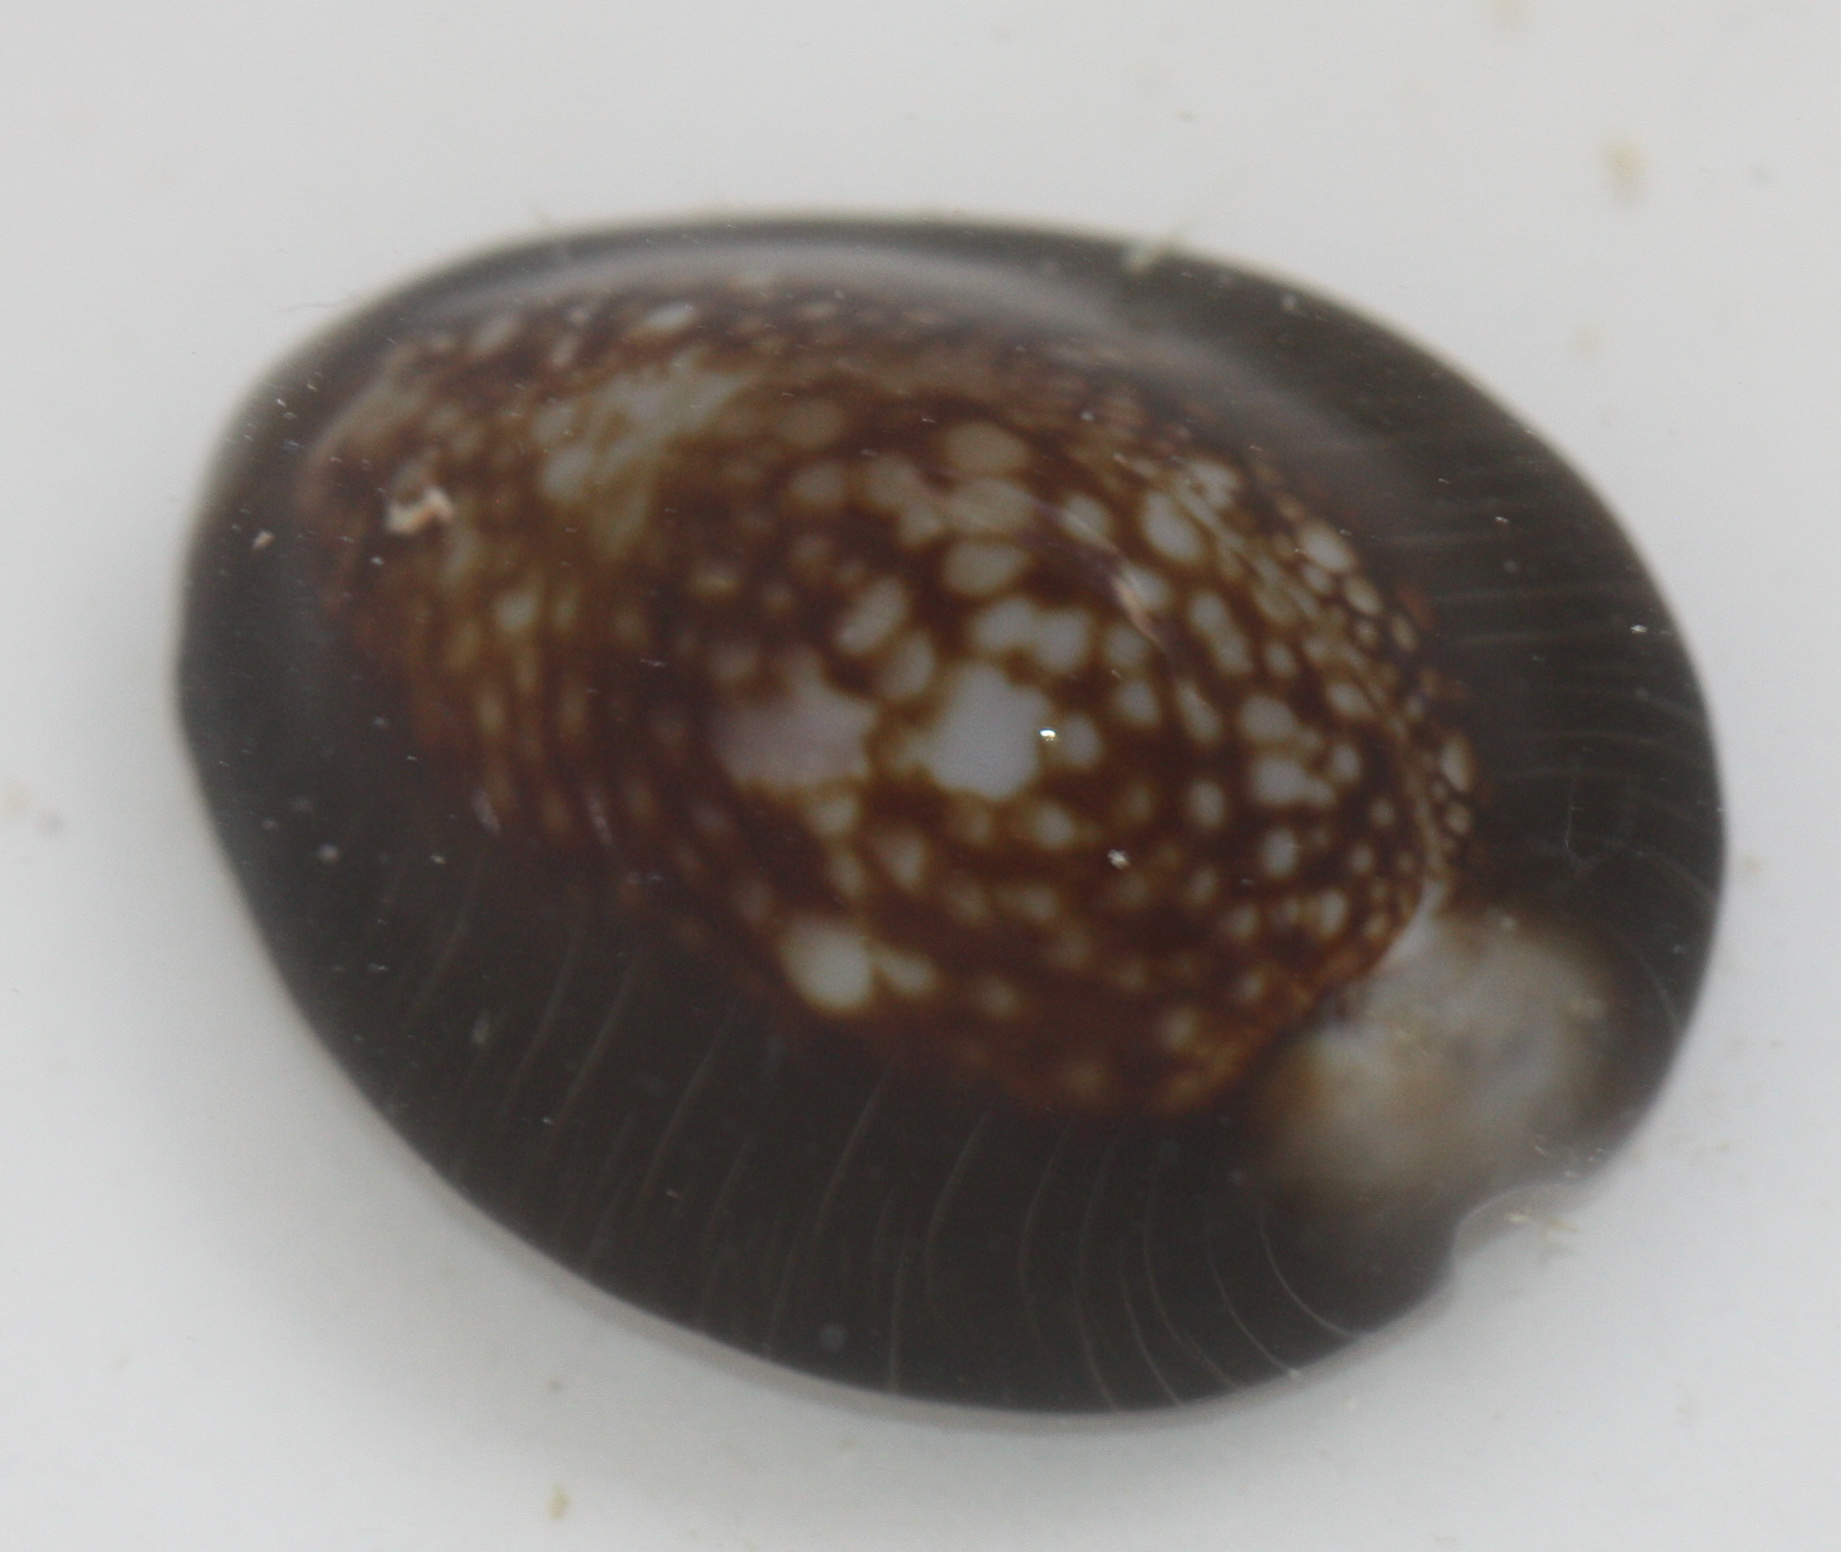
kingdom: Animalia
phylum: Mollusca
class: Gastropoda
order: Littorinimorpha
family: Cypraeidae
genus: Monetaria
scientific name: Monetaria caputserpentis
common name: Serpent's head cowrie
